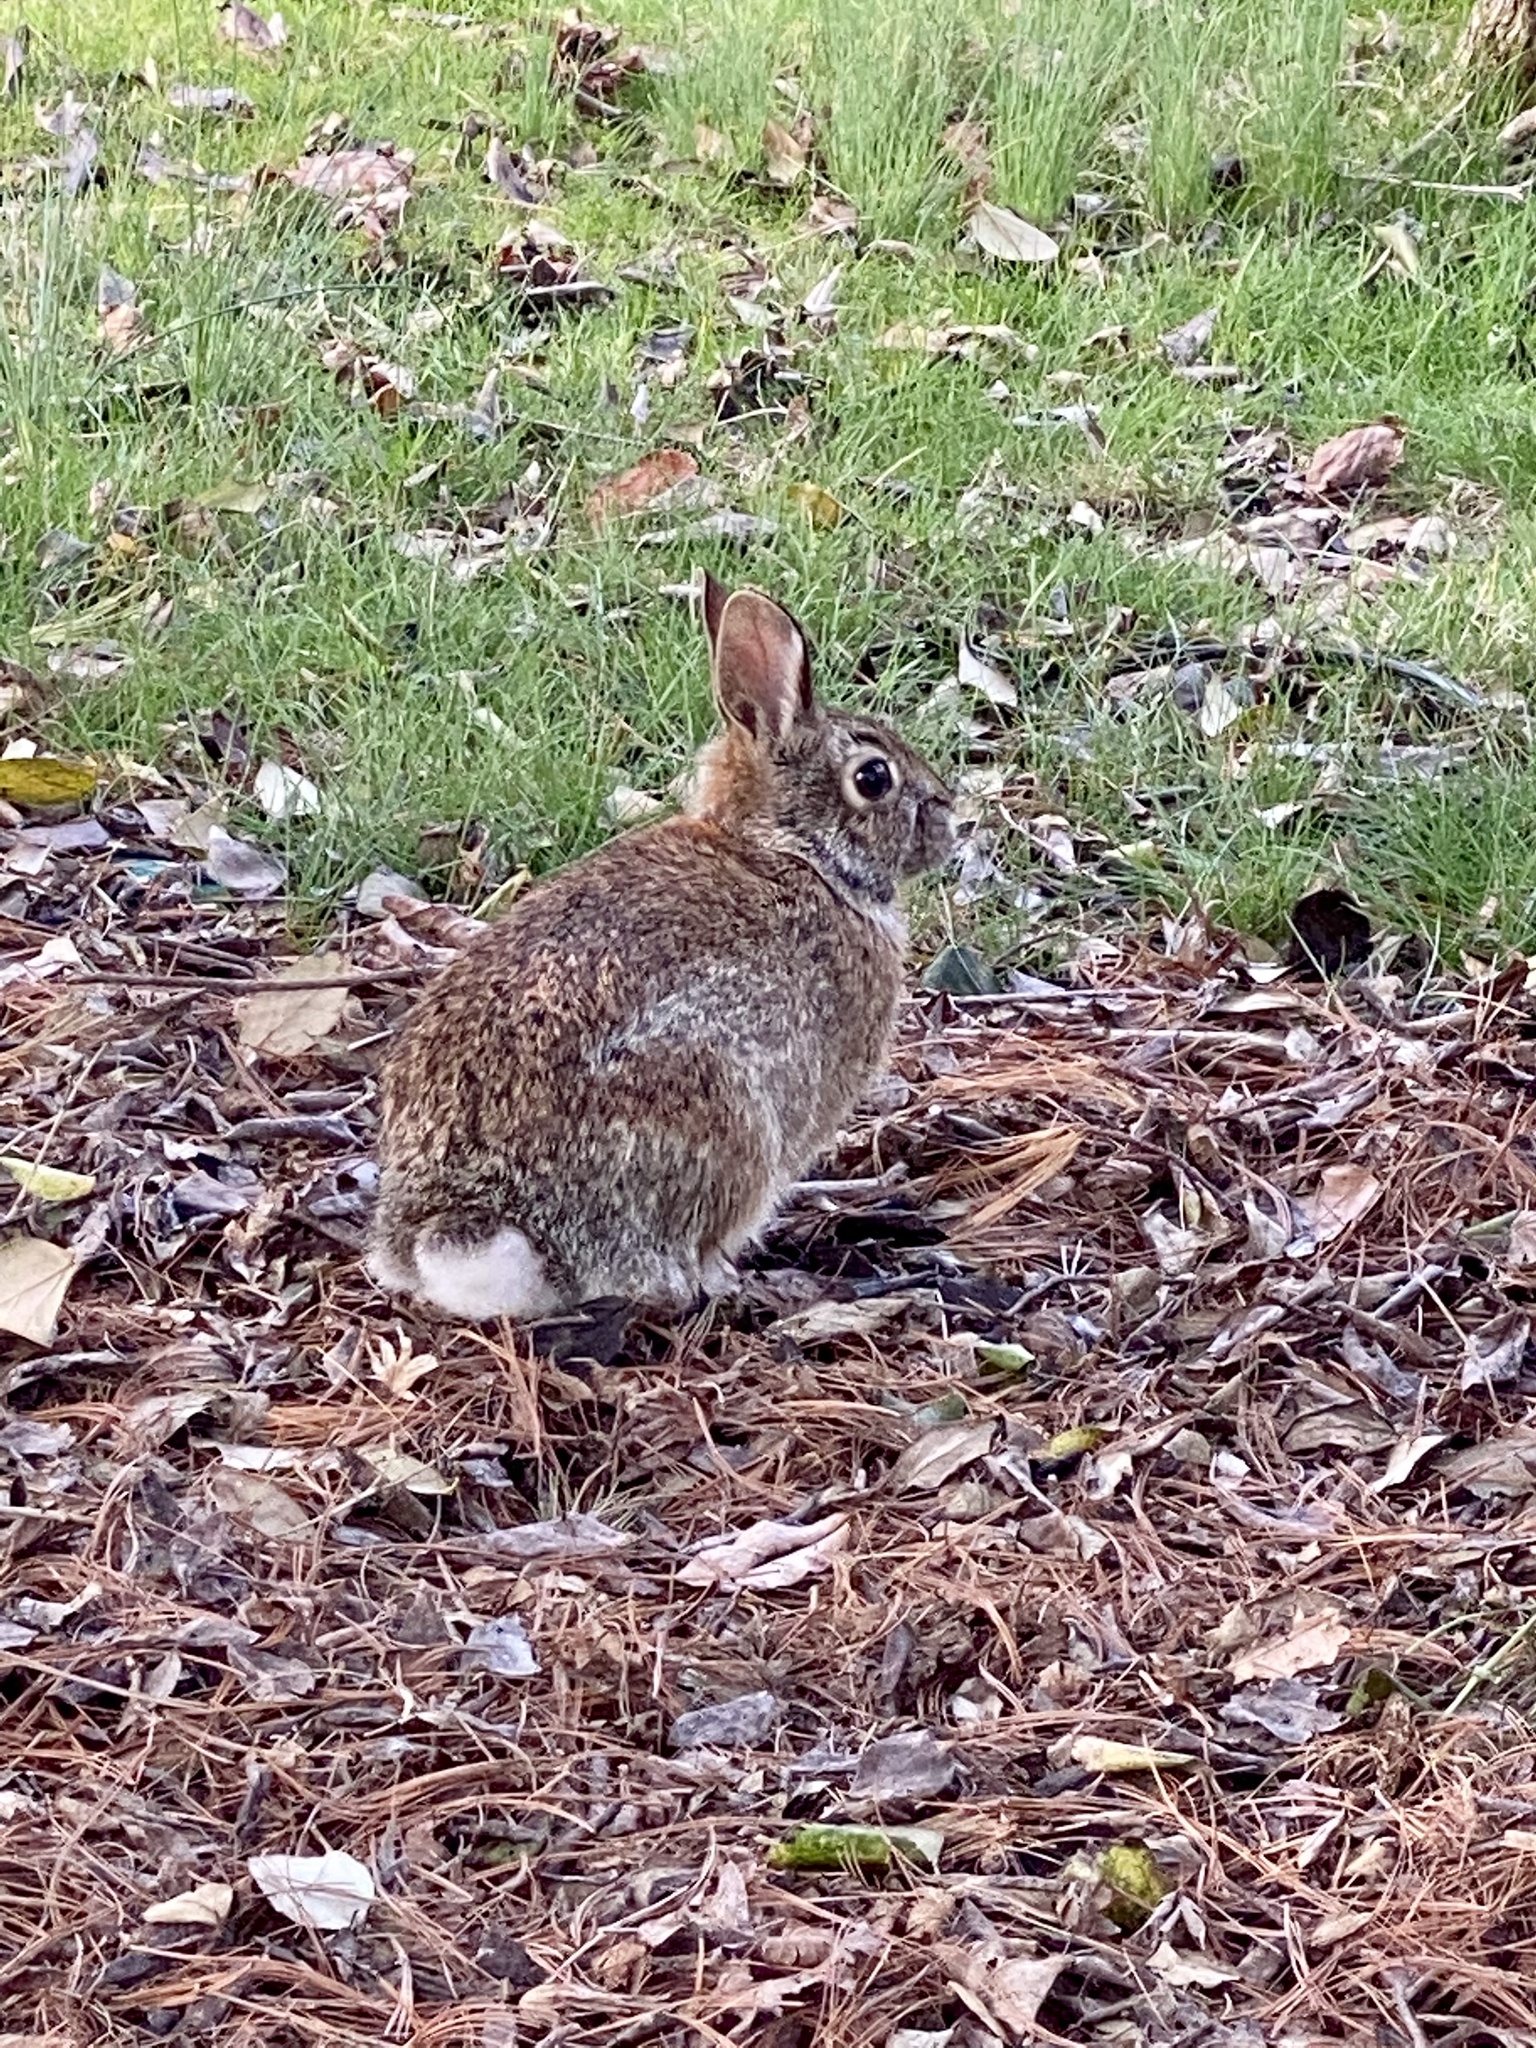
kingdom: Animalia
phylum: Chordata
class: Mammalia
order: Lagomorpha
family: Leporidae
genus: Sylvilagus
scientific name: Sylvilagus floridanus
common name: Eastern cottontail
